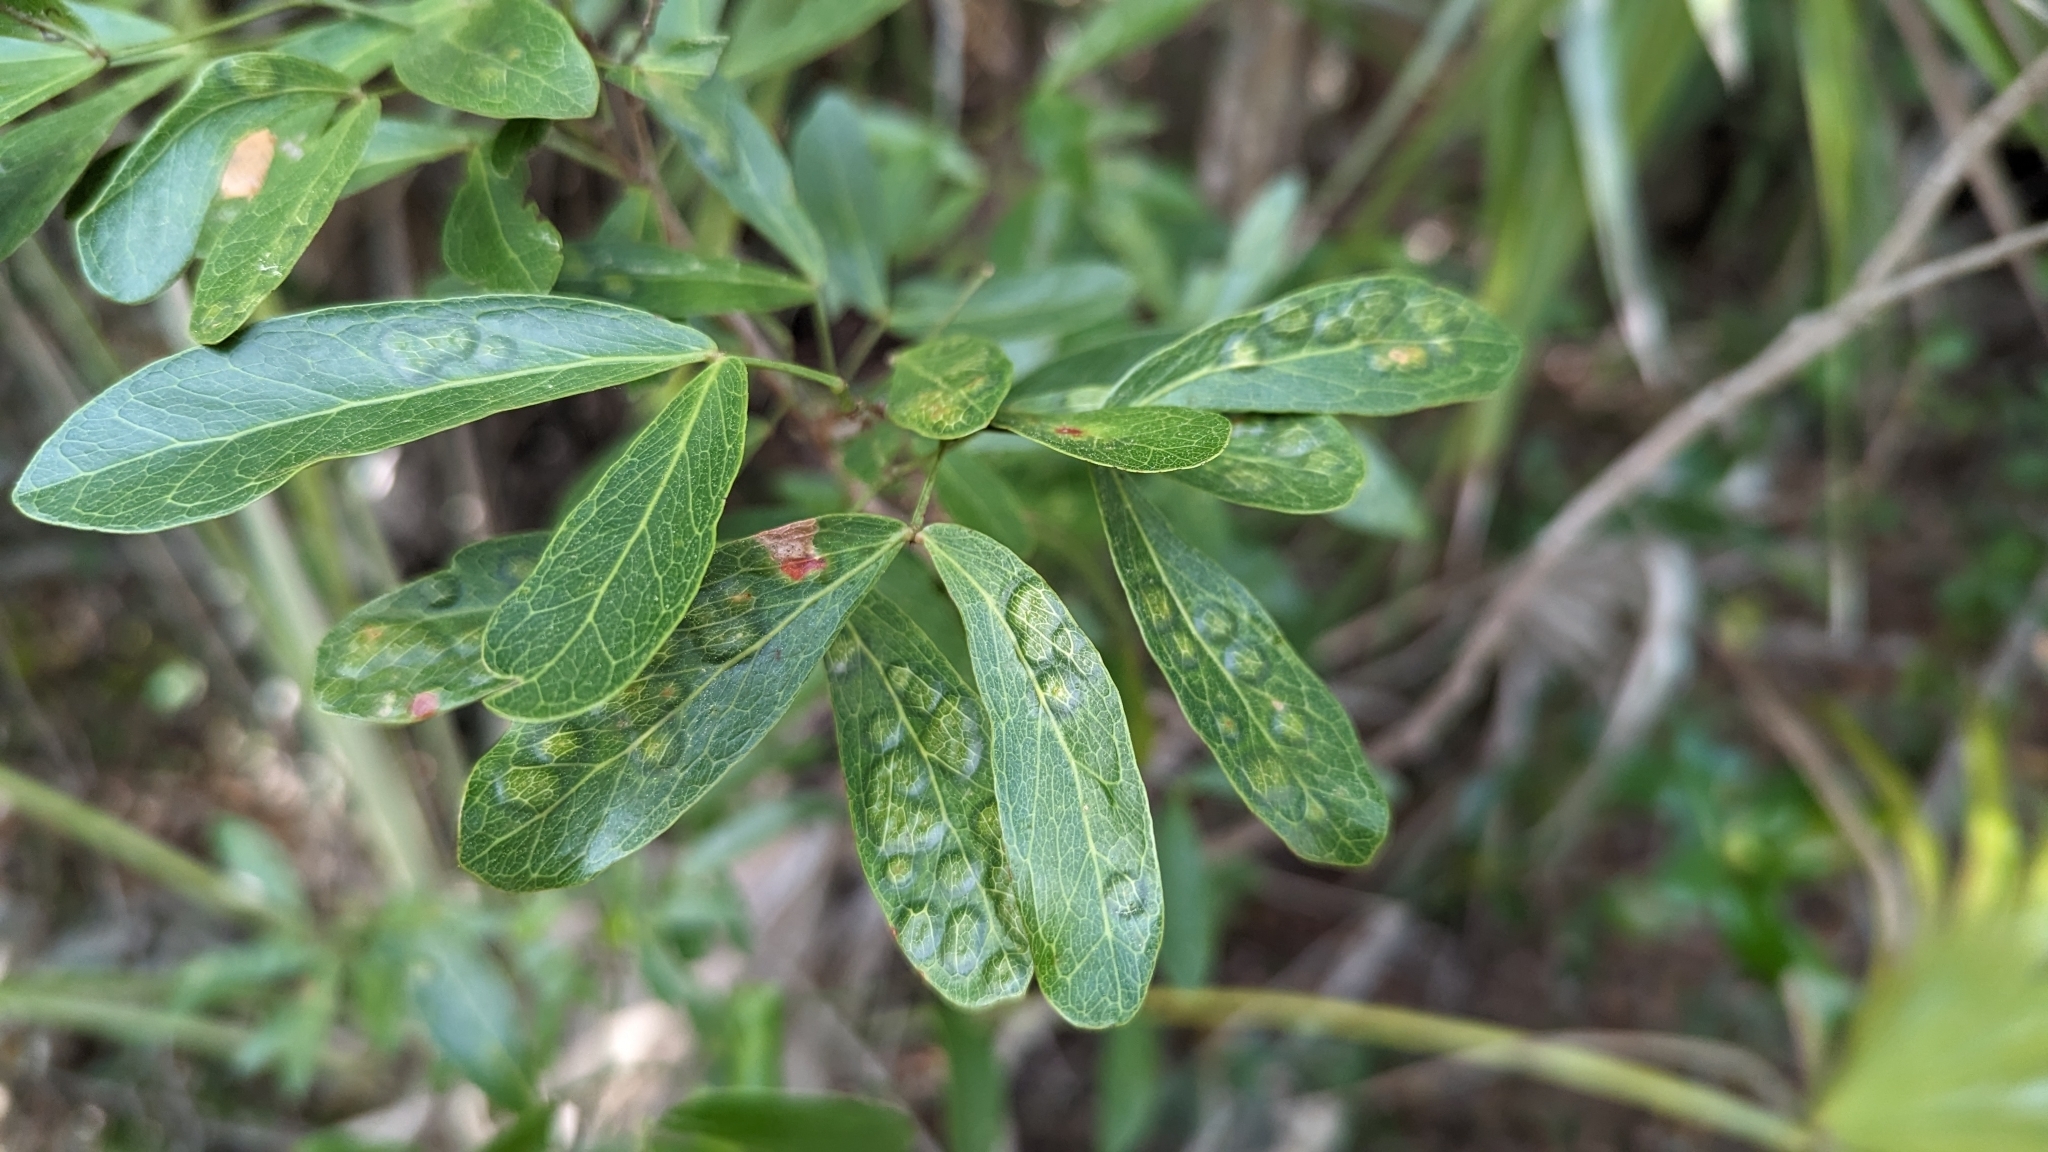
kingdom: Animalia
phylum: Arthropoda
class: Insecta
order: Hymenoptera
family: Tanaostigmatidae
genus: Tanaostigmodes
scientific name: Tanaostigmodes pithecellobiae
